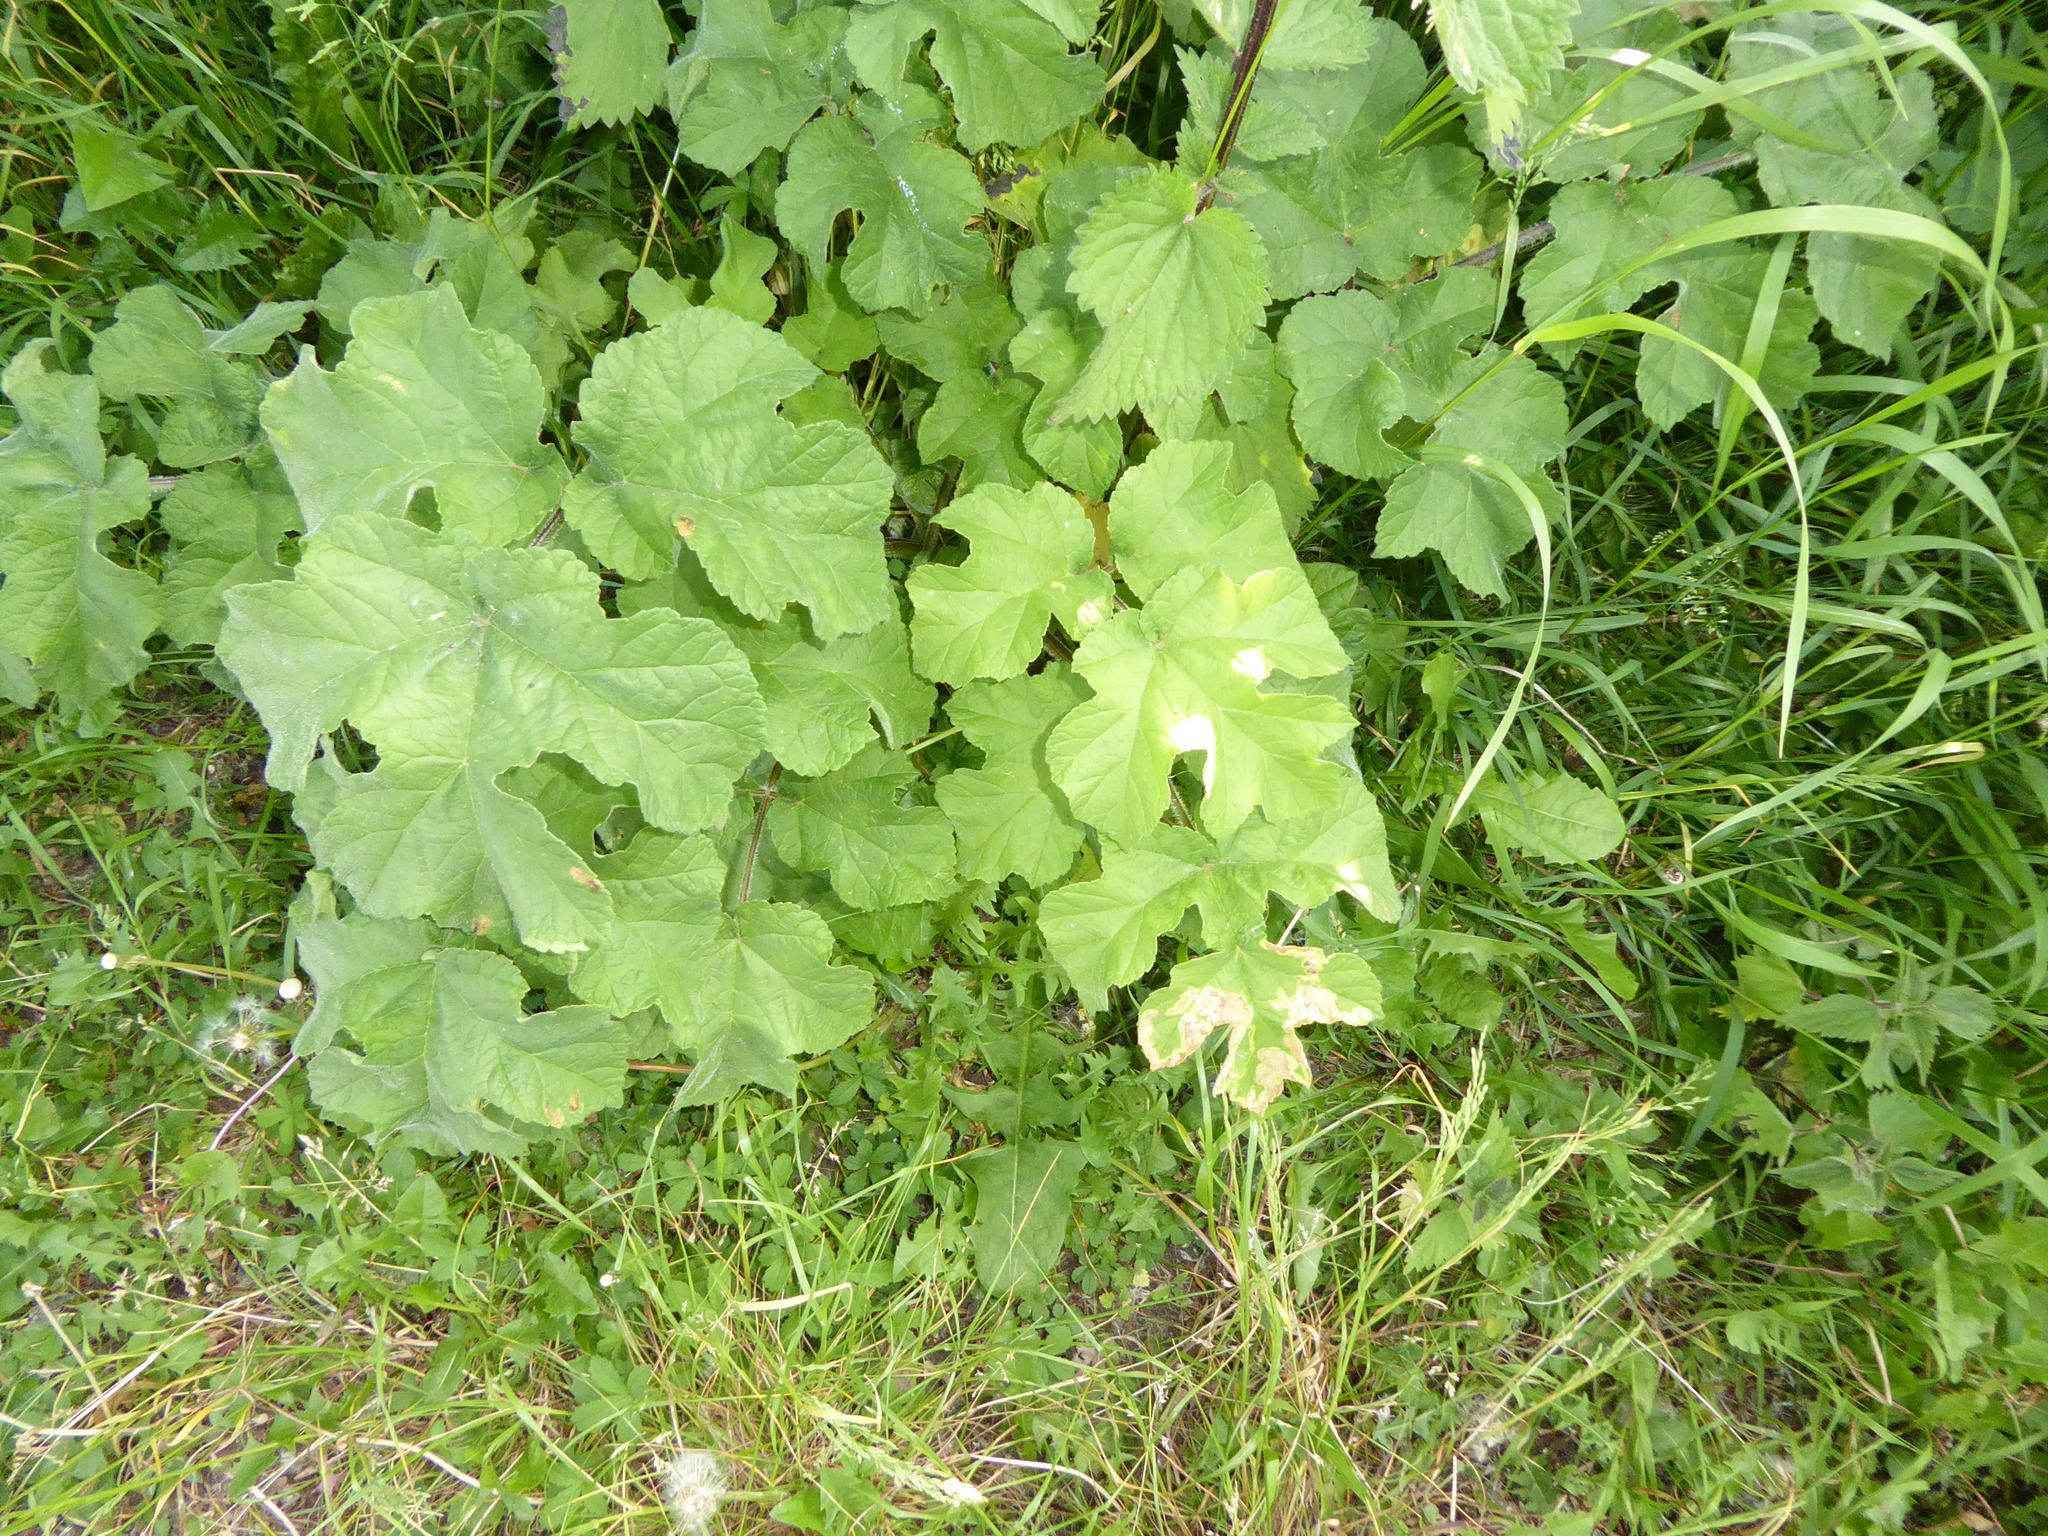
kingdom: Plantae
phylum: Tracheophyta
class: Magnoliopsida
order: Apiales
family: Apiaceae
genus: Heracleum
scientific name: Heracleum sphondylium
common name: Hogweed
